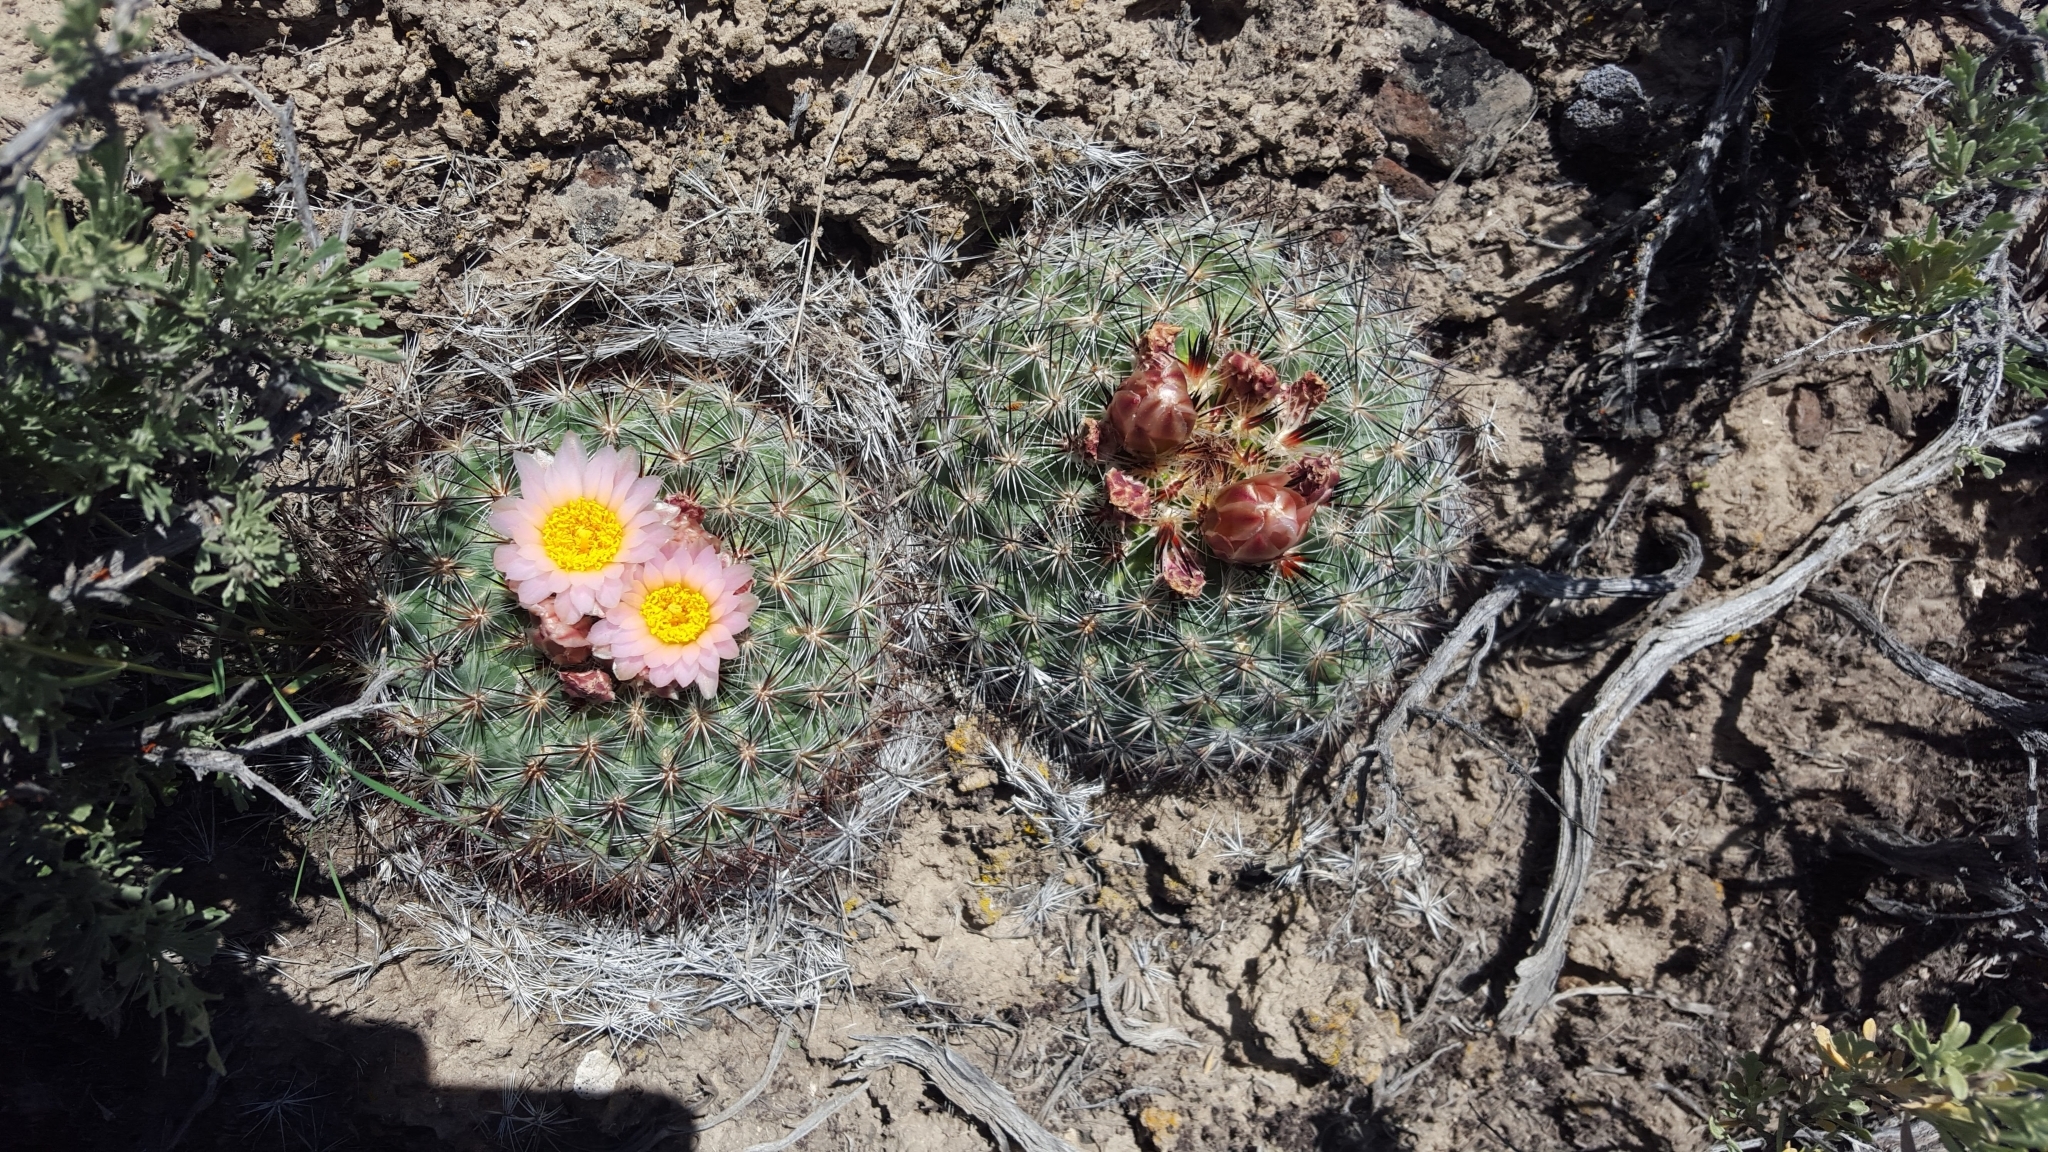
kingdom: Plantae
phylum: Tracheophyta
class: Magnoliopsida
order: Caryophyllales
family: Cactaceae
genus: Pediocactus
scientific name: Pediocactus simpsonii
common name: Simpson's hedgehog cactus
